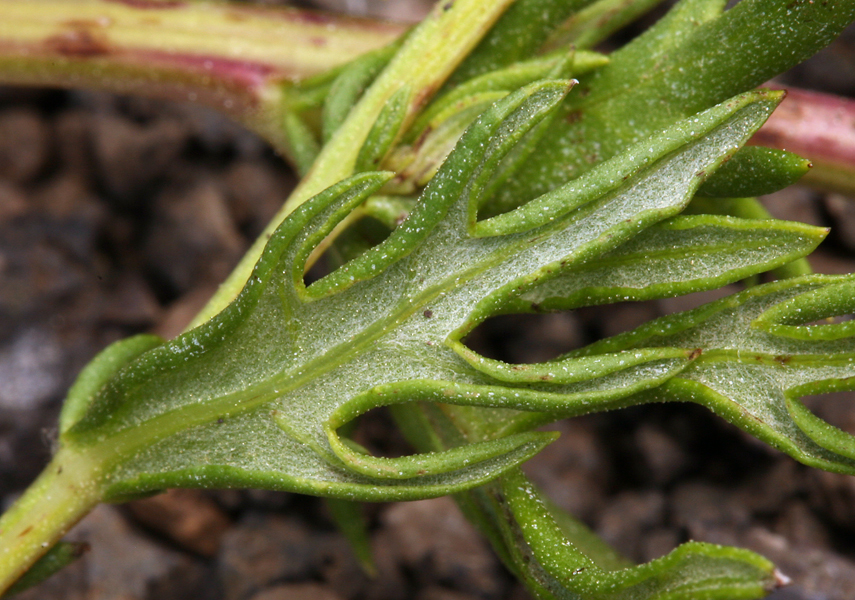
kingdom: Plantae
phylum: Tracheophyta
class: Magnoliopsida
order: Asterales
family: Asteraceae
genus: Artemisia
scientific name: Artemisia ludoviciana
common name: Western mugwort
